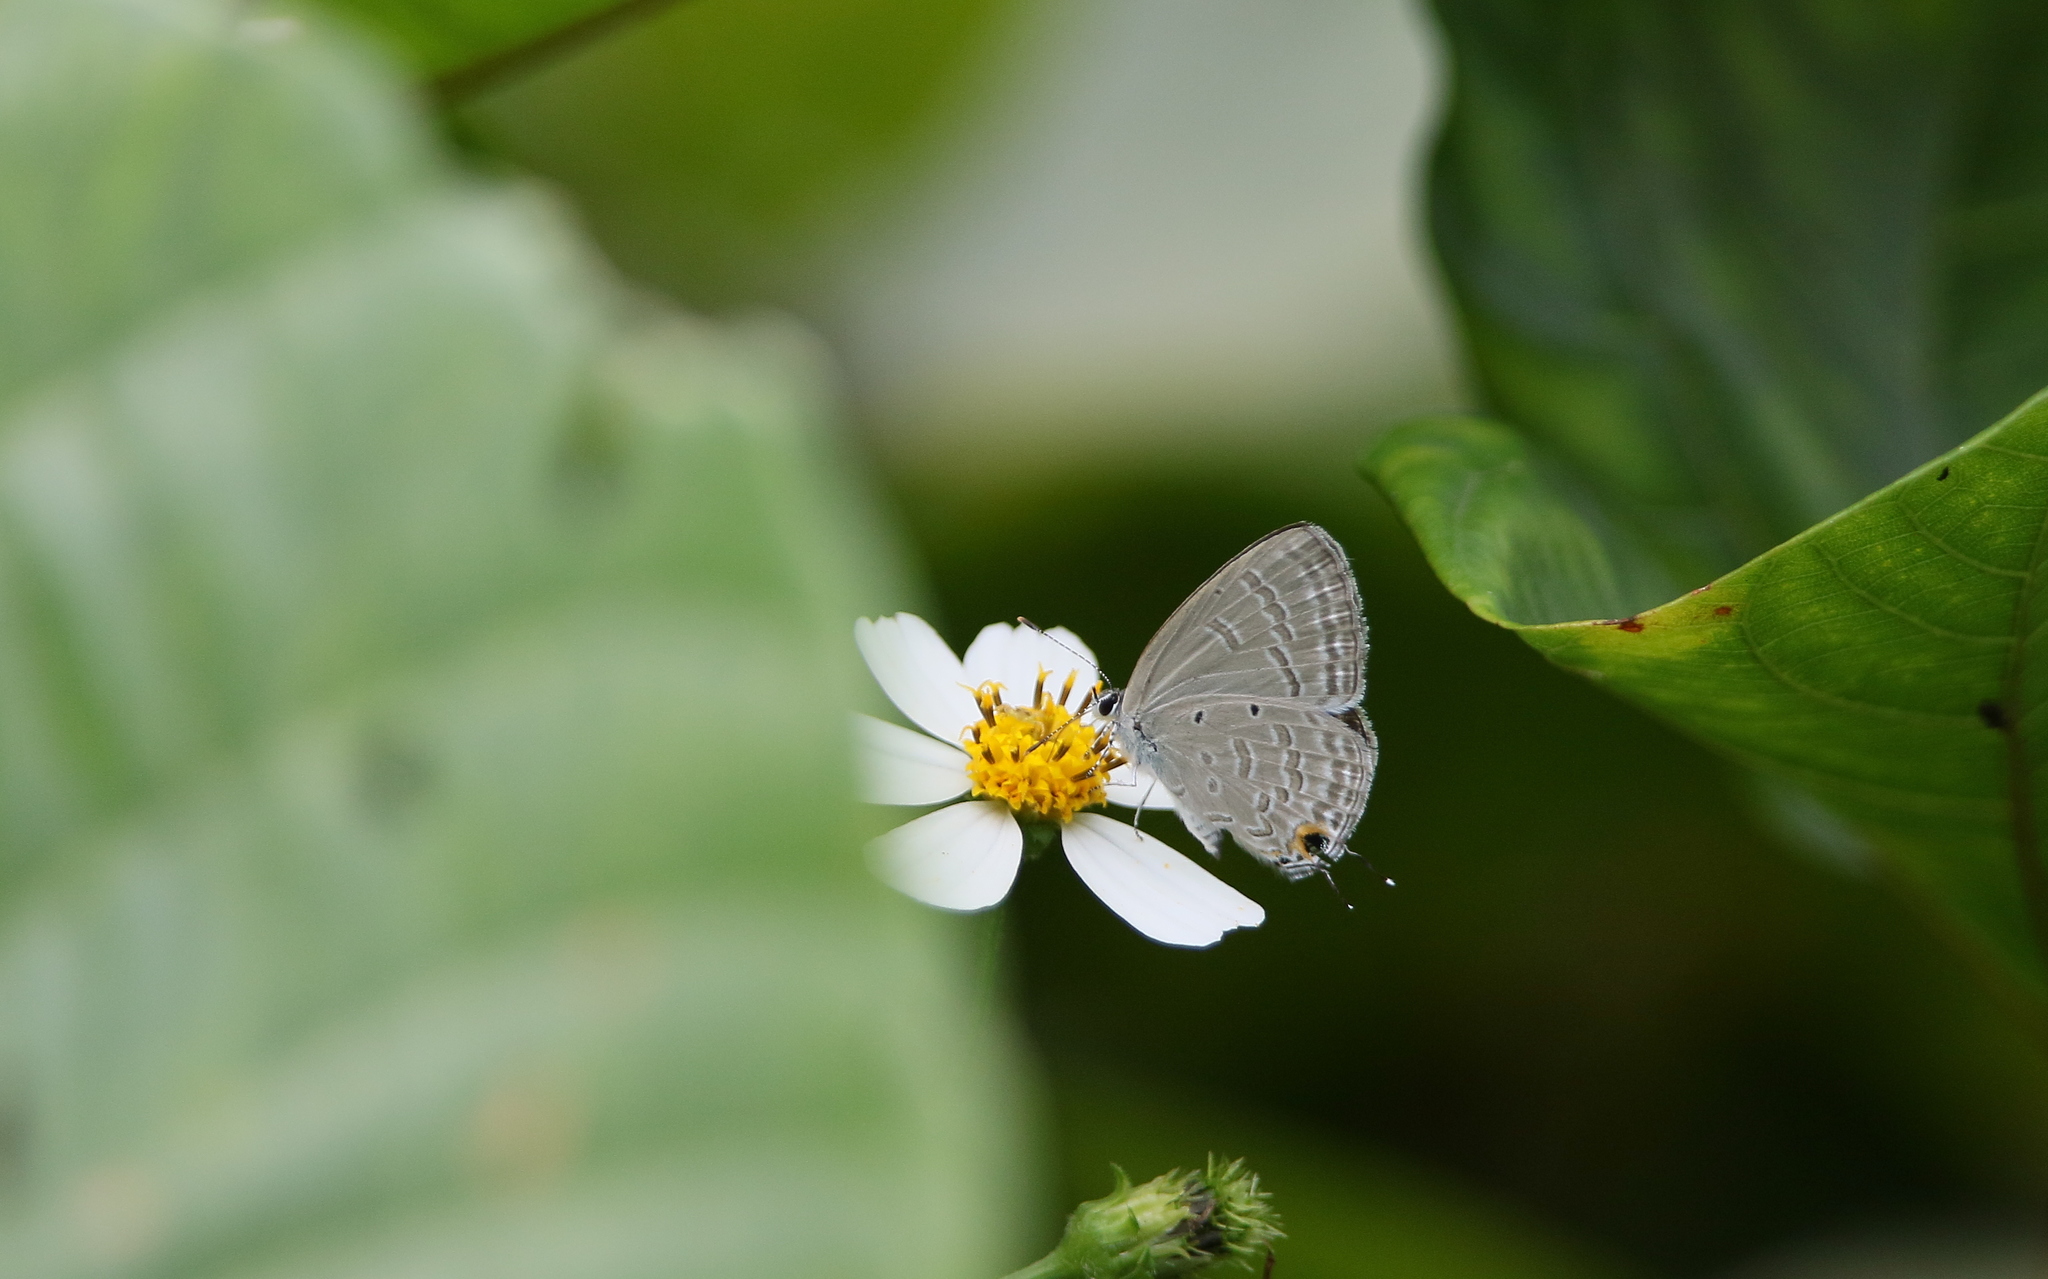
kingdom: Animalia
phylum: Arthropoda
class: Insecta
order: Lepidoptera
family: Lycaenidae
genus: Catochrysops
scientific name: Catochrysops strabo
